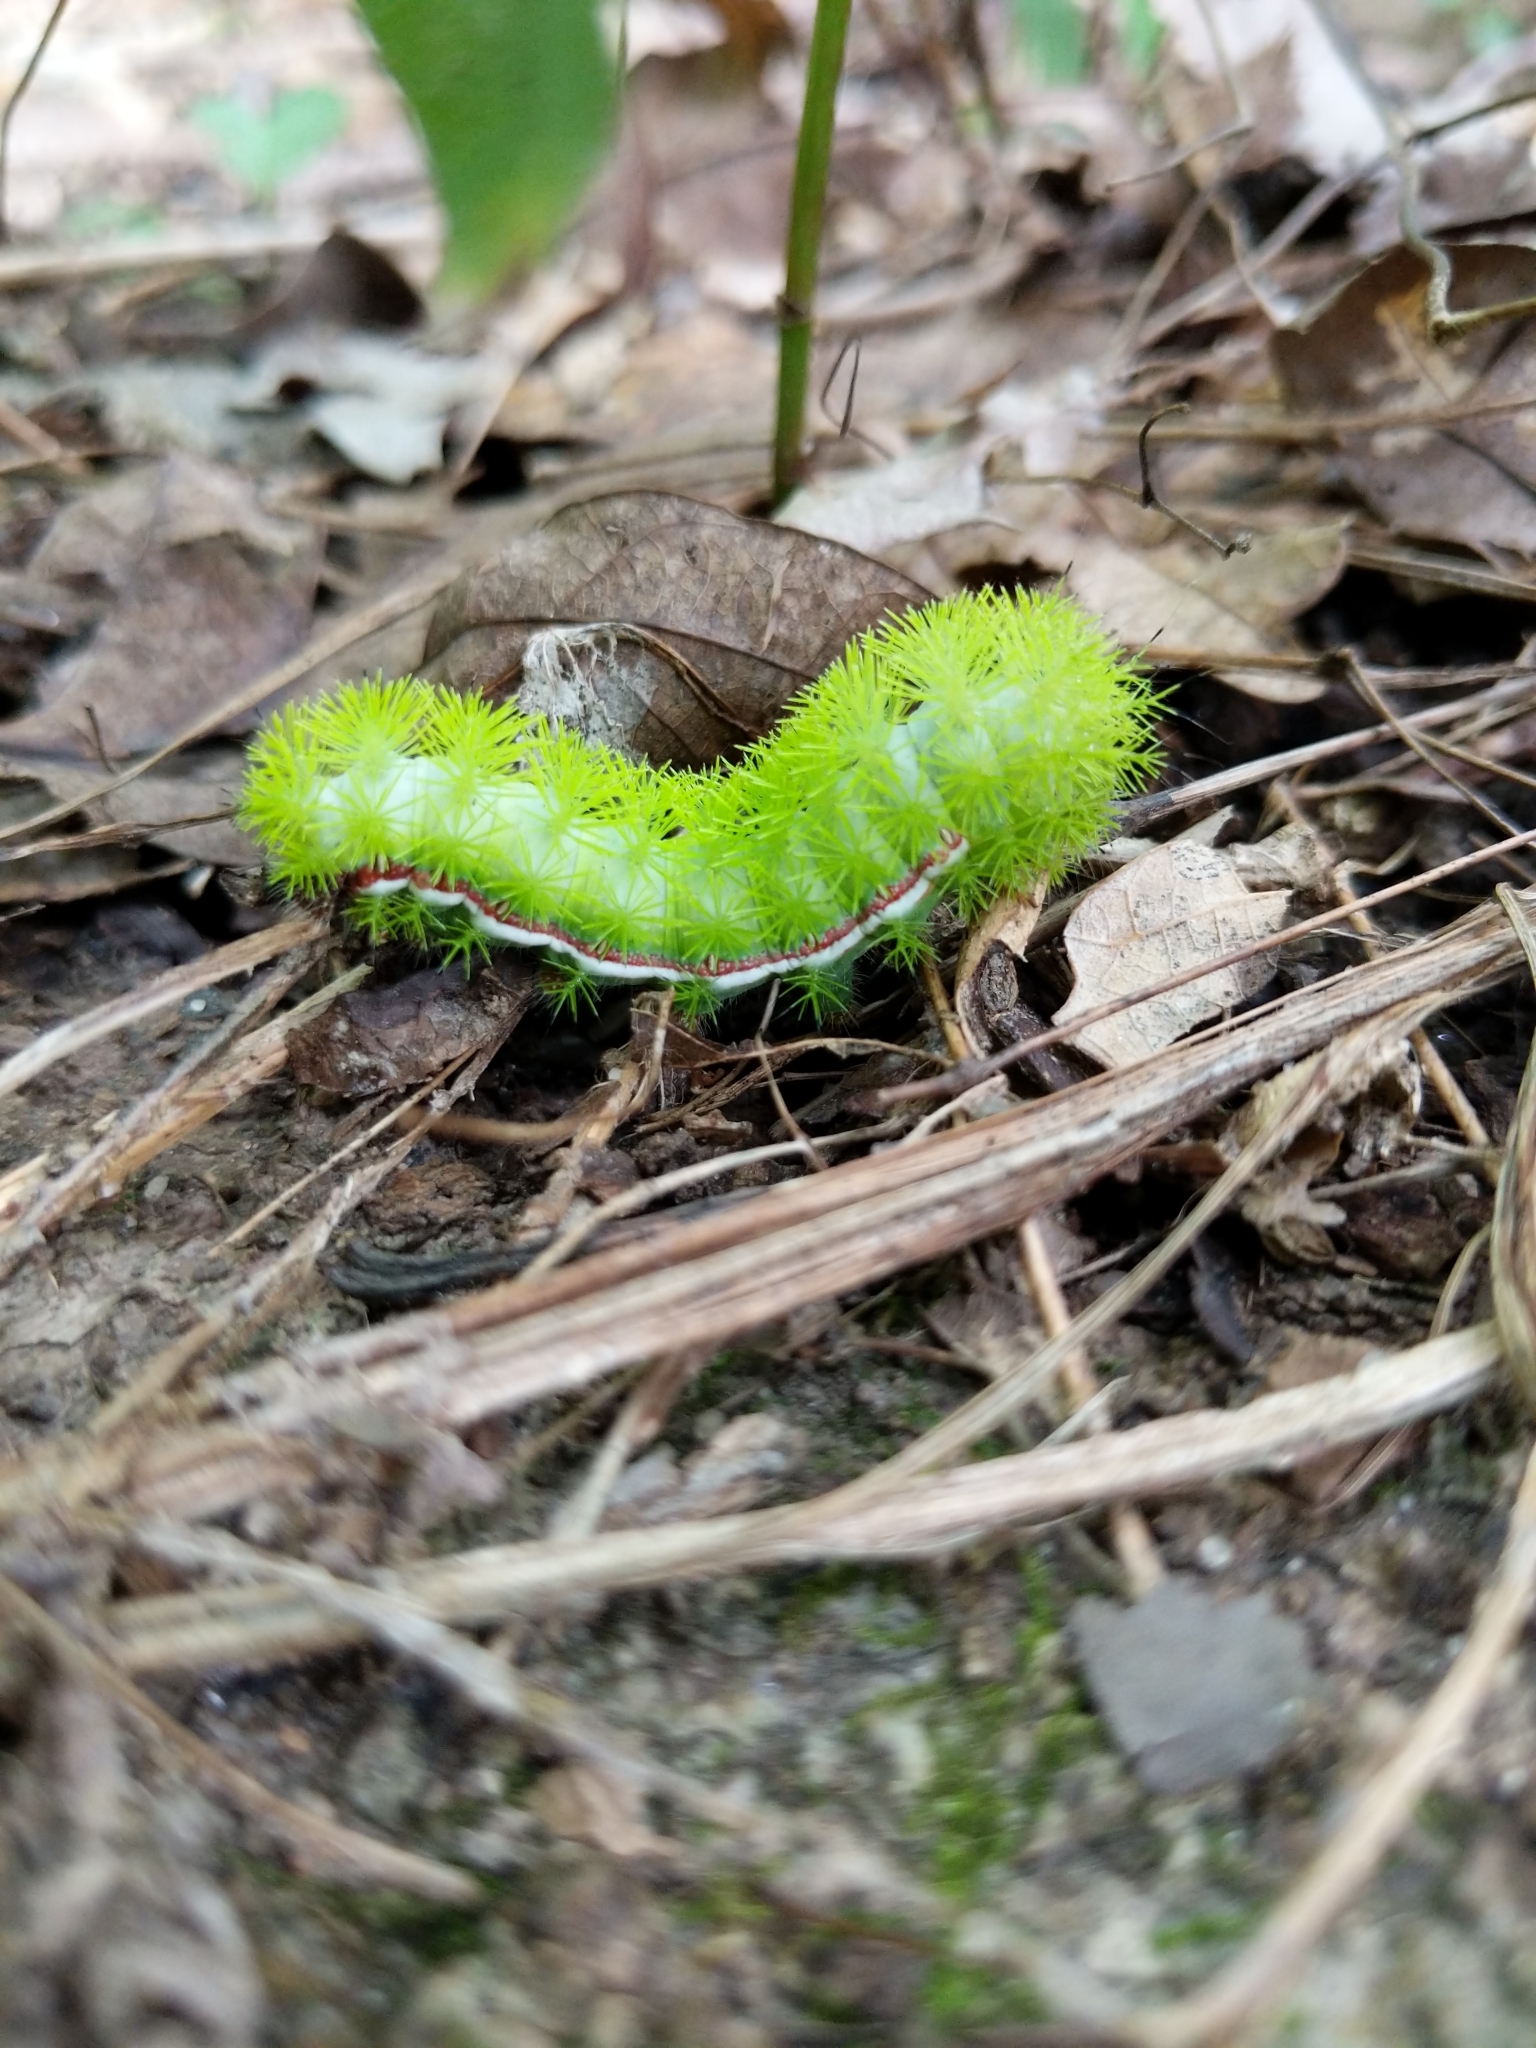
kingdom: Animalia
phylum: Arthropoda
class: Insecta
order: Lepidoptera
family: Saturniidae
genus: Automeris
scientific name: Automeris io
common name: Io moth
